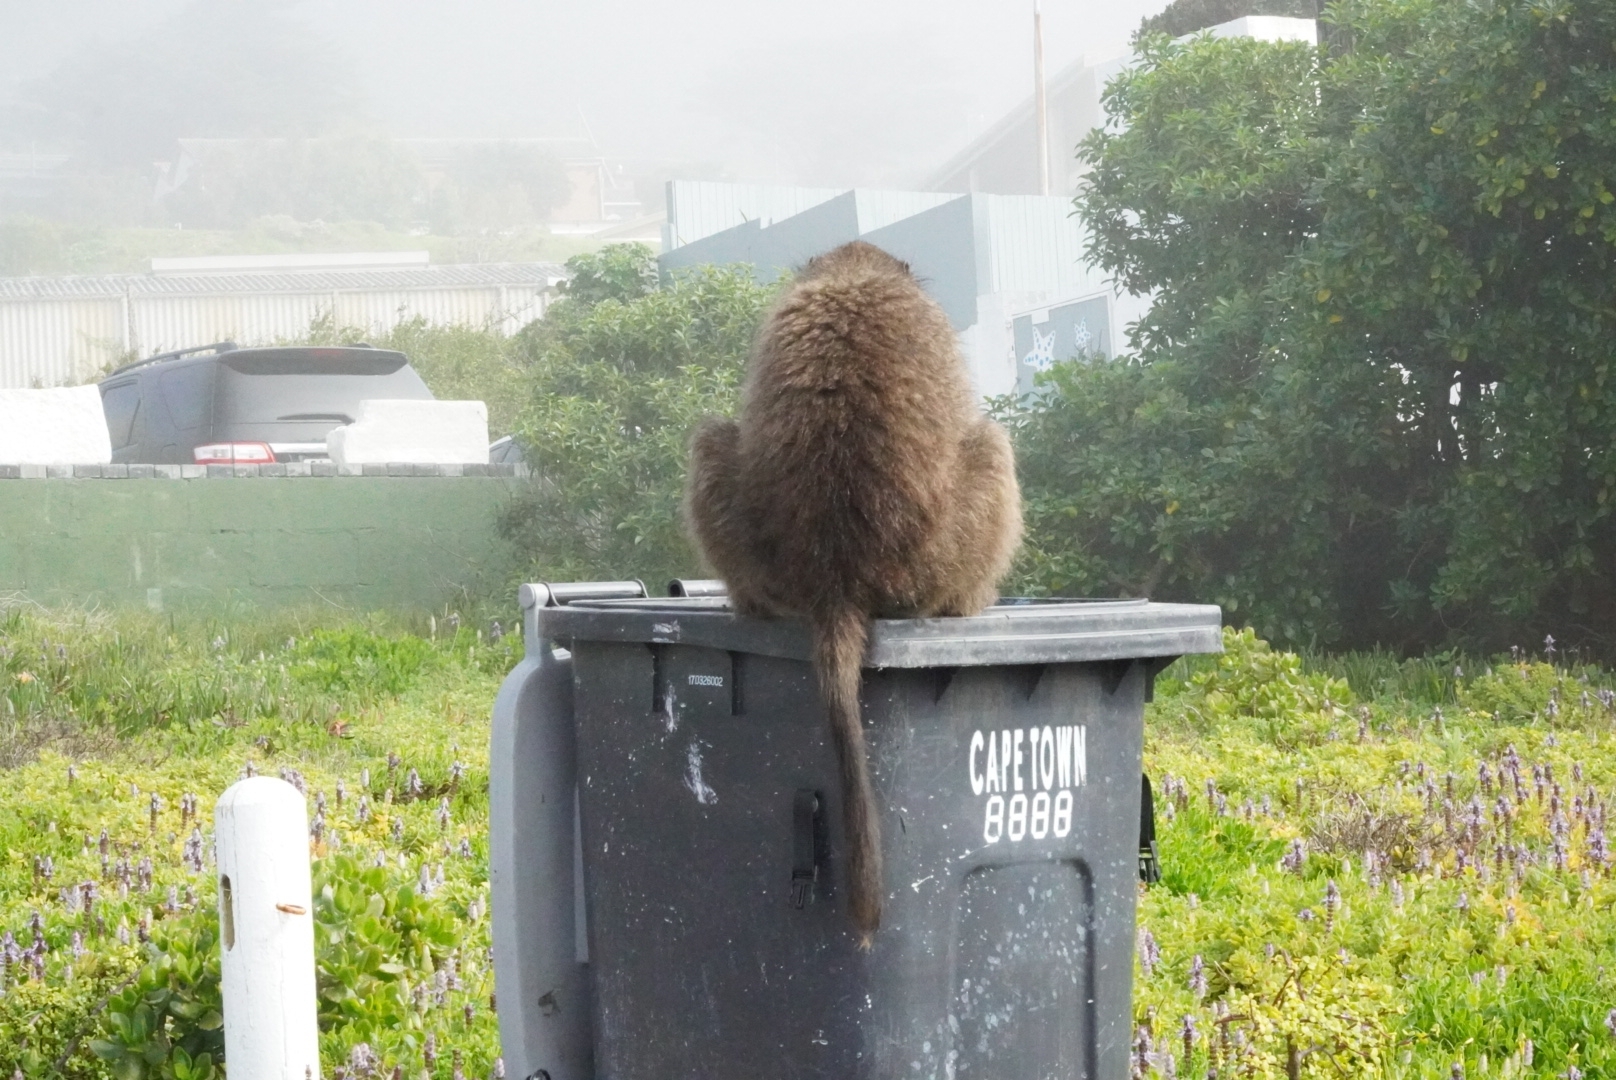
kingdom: Animalia
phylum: Chordata
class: Mammalia
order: Primates
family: Cercopithecidae
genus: Papio
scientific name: Papio ursinus
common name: Chacma baboon
